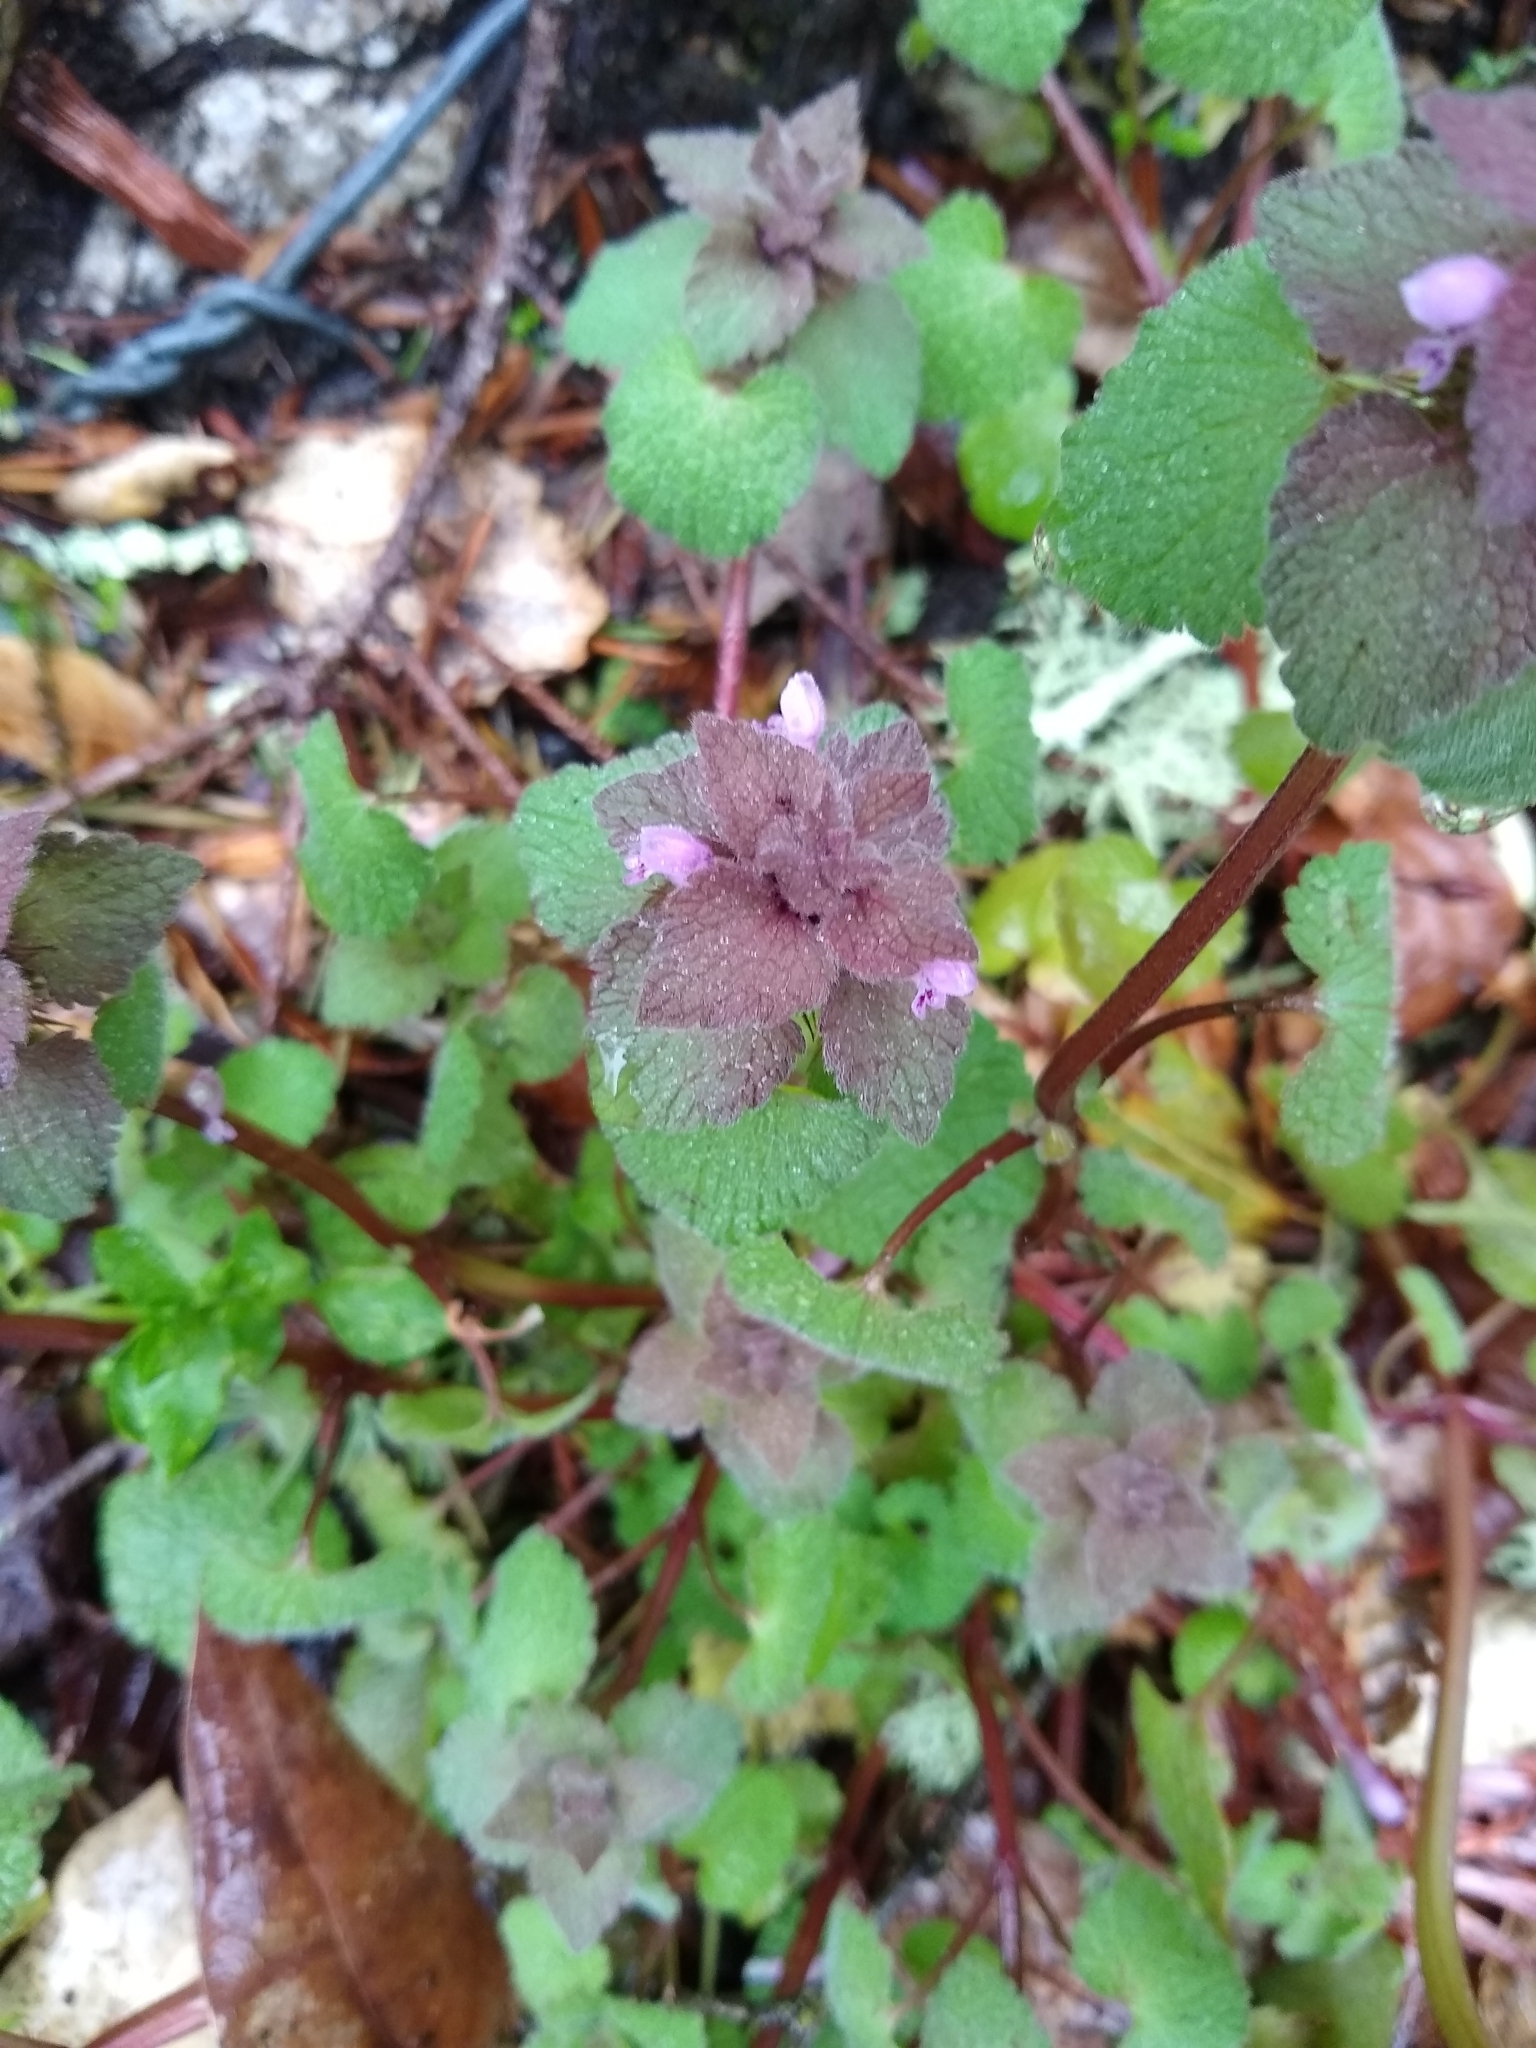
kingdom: Plantae
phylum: Tracheophyta
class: Magnoliopsida
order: Lamiales
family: Lamiaceae
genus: Lamium
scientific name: Lamium purpureum
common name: Red dead-nettle
